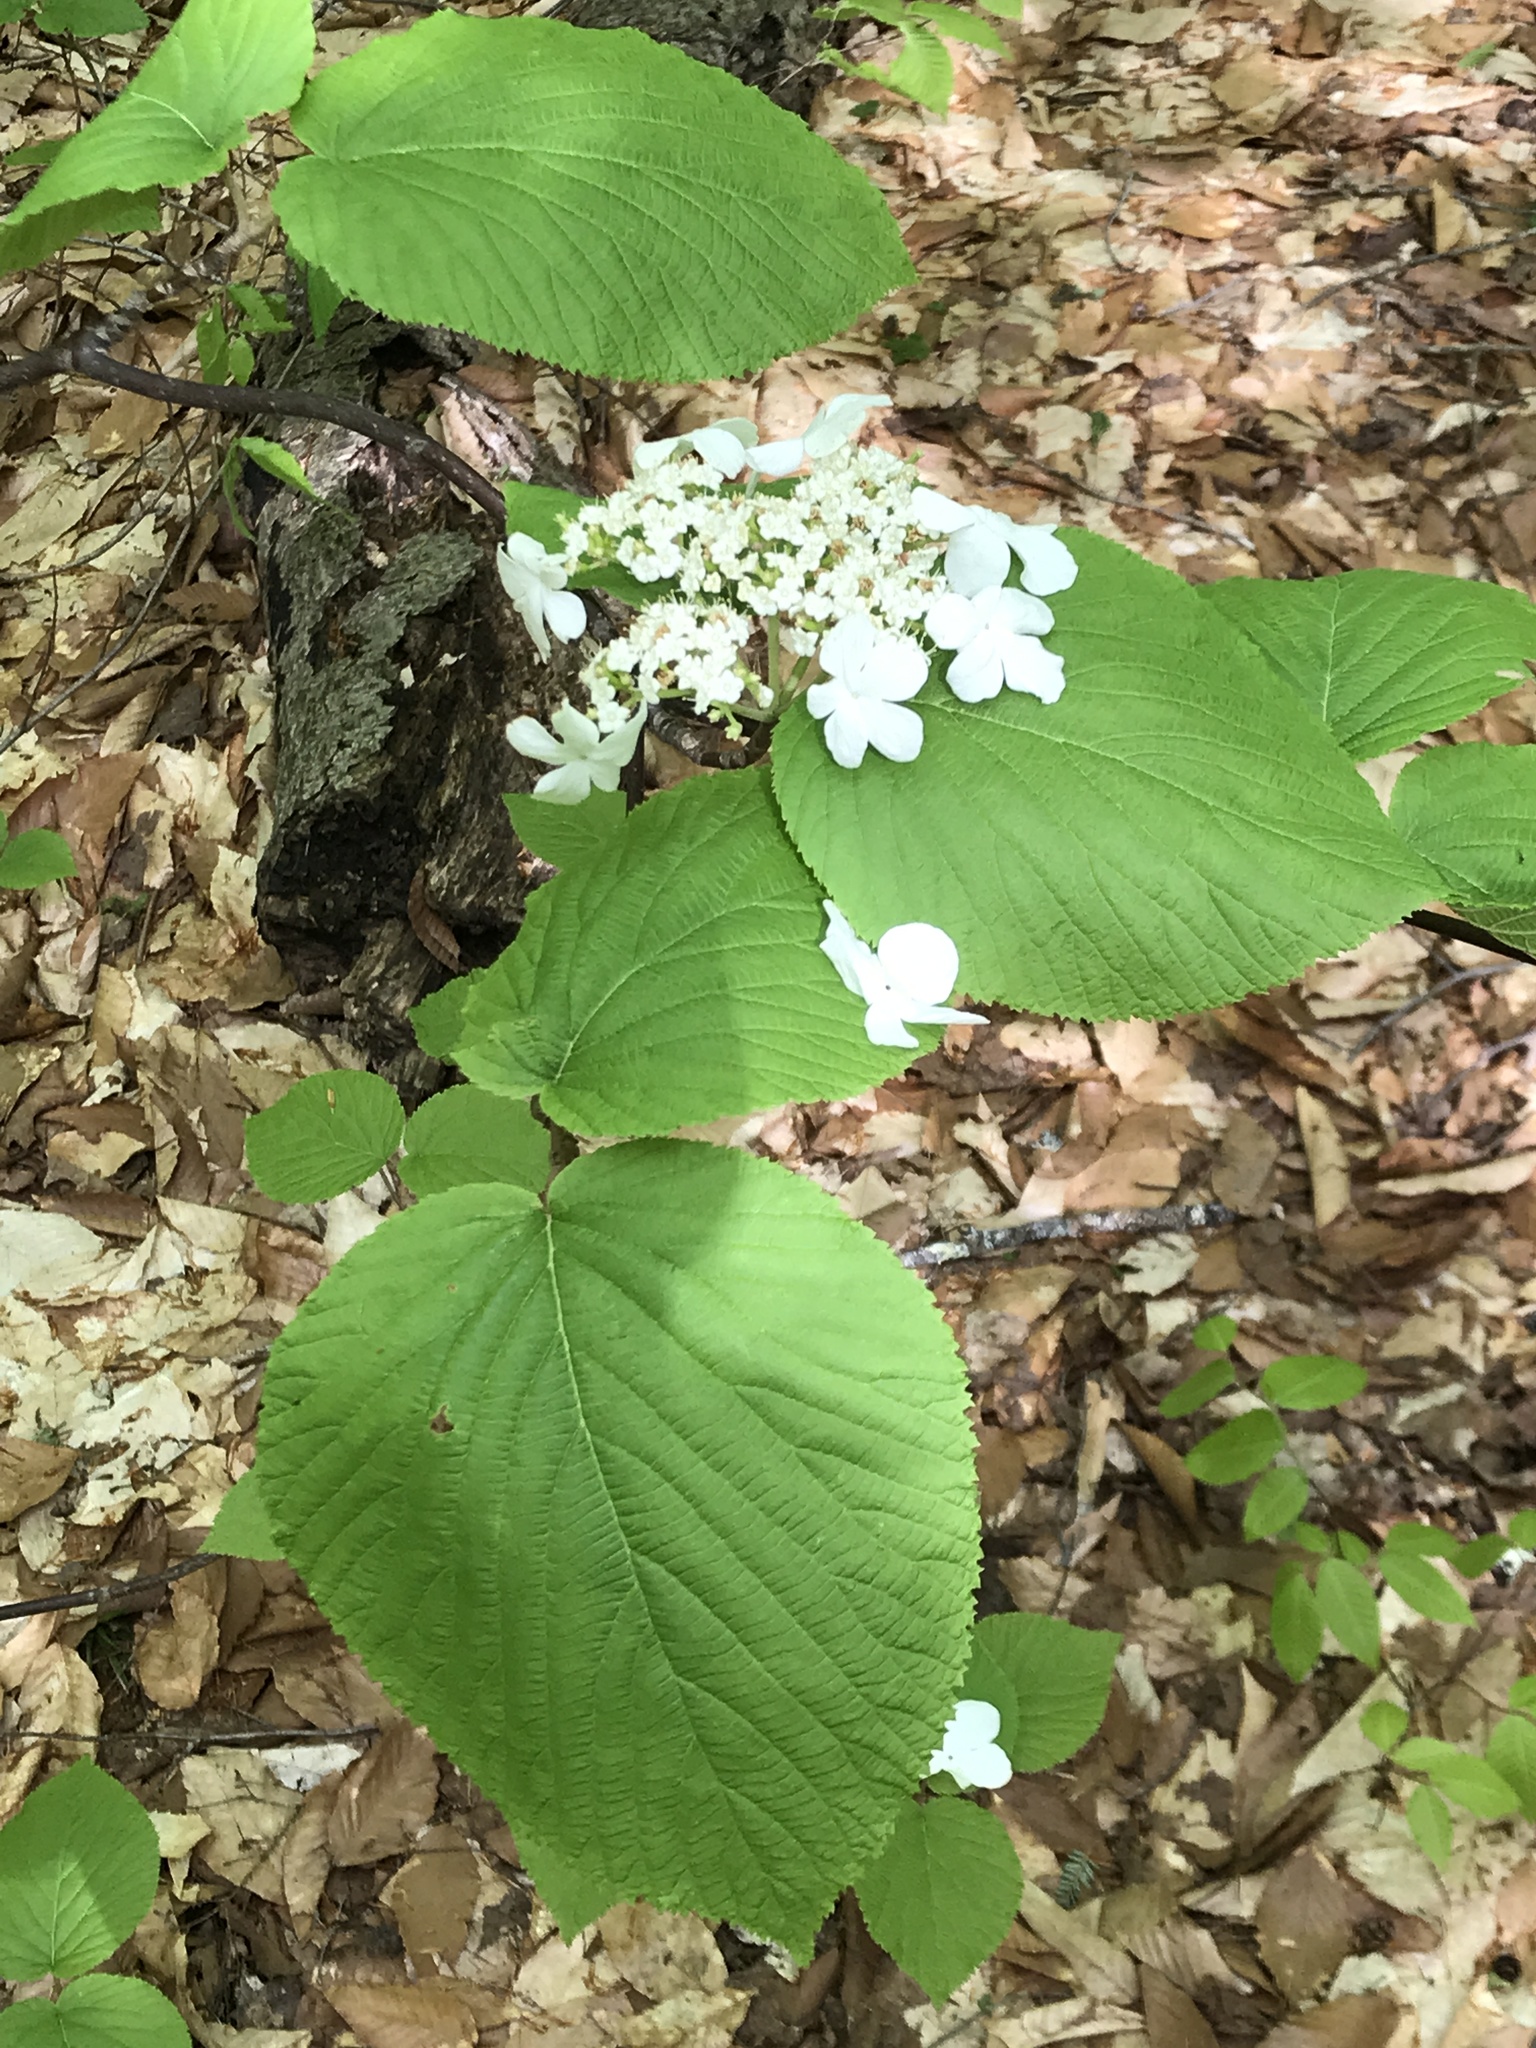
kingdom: Plantae
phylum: Tracheophyta
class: Magnoliopsida
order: Dipsacales
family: Viburnaceae
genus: Viburnum
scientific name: Viburnum lantanoides
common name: Hobblebush
